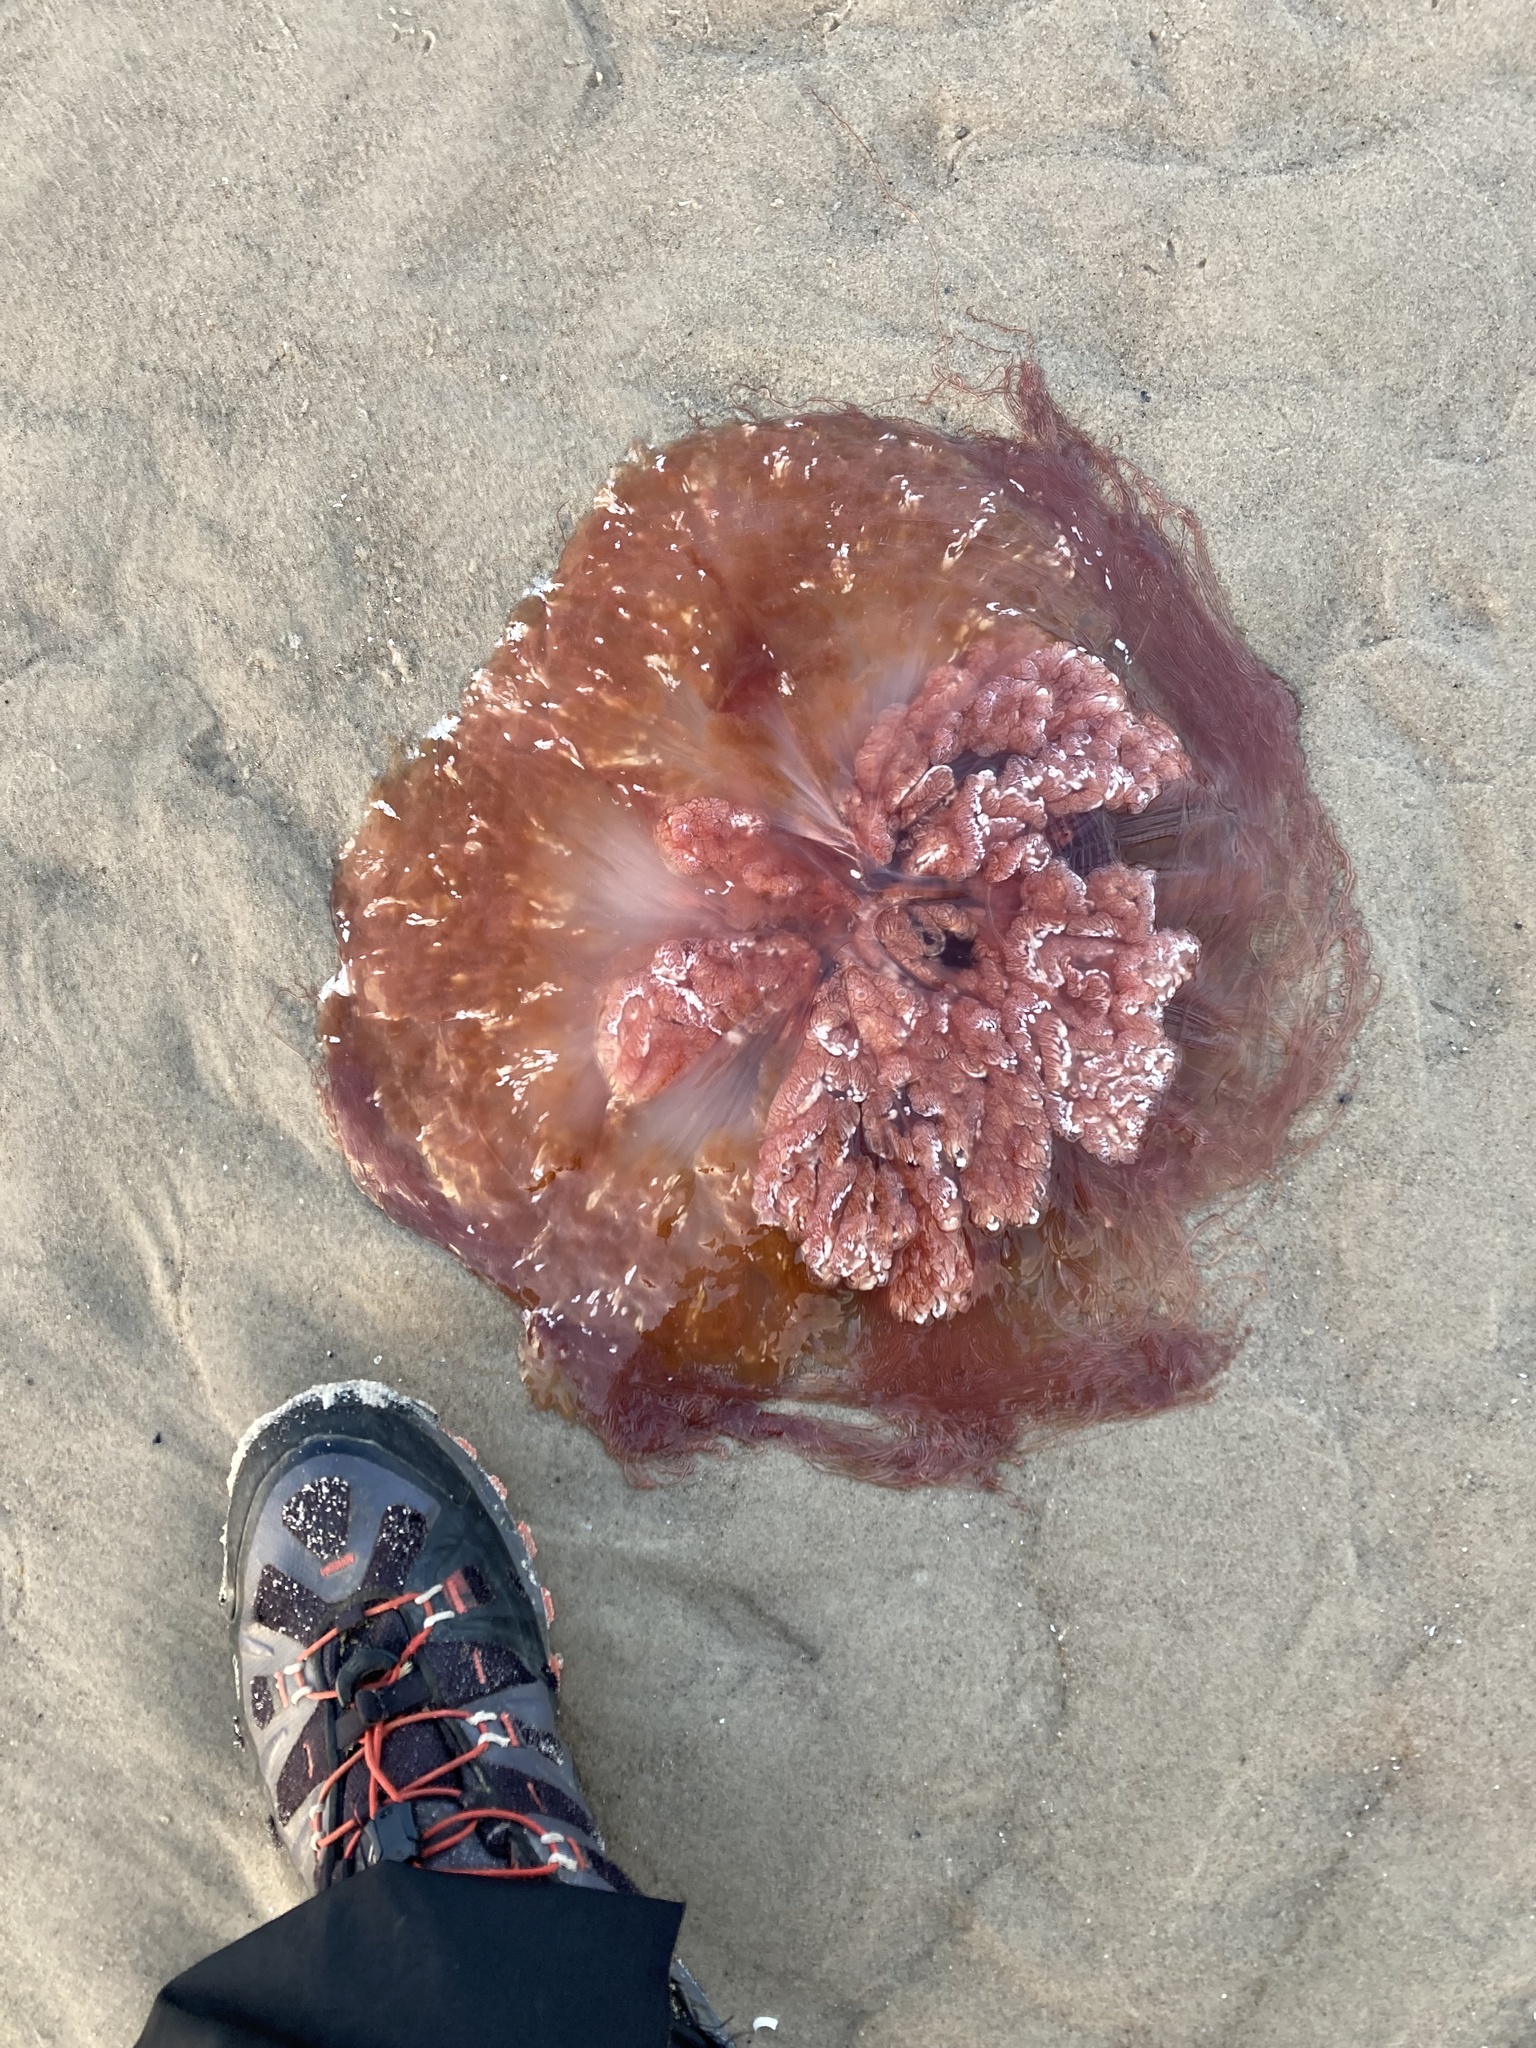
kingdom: Animalia
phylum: Cnidaria
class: Scyphozoa
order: Semaeostomeae
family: Cyaneidae
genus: Cyanea
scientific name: Cyanea capillata
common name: Lion's mane jellyfish
